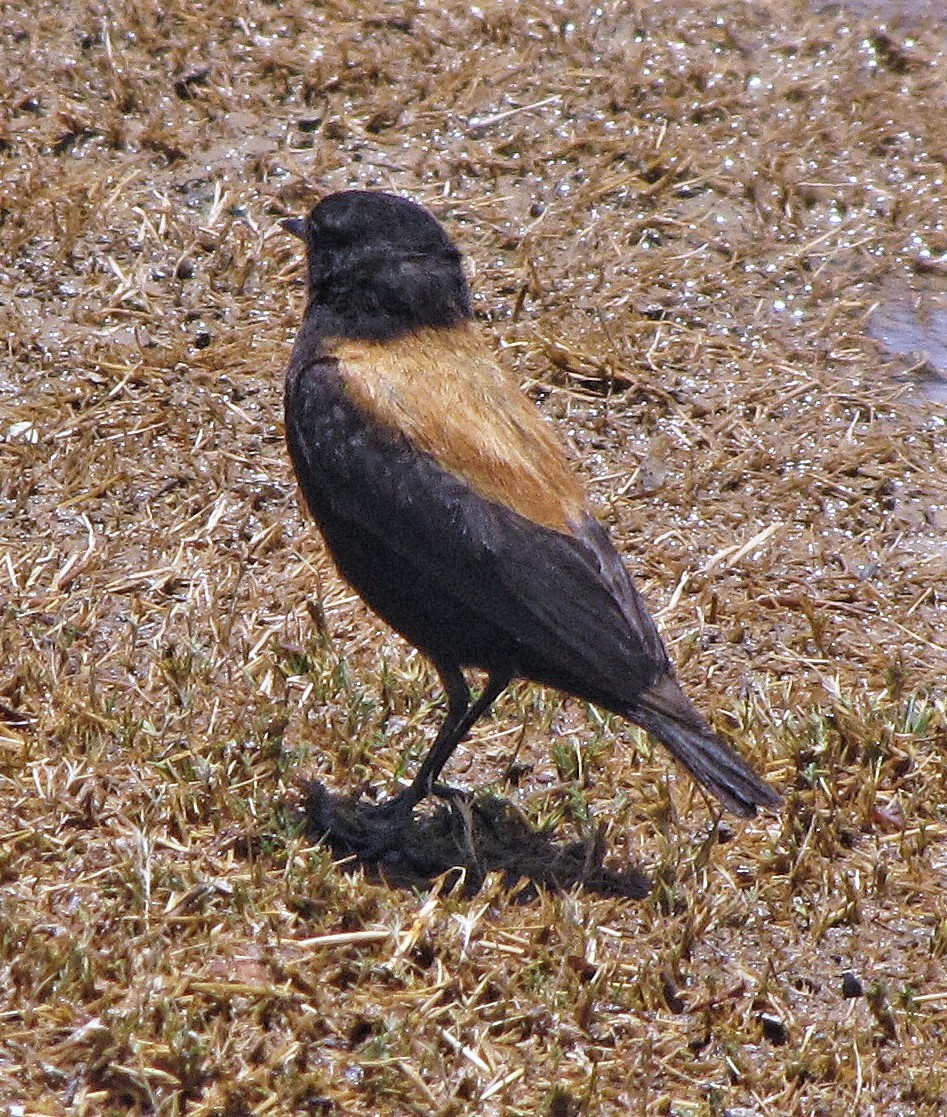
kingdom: Animalia
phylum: Chordata
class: Aves
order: Passeriformes
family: Tyrannidae
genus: Lessonia
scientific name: Lessonia oreas
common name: Andean negrito
